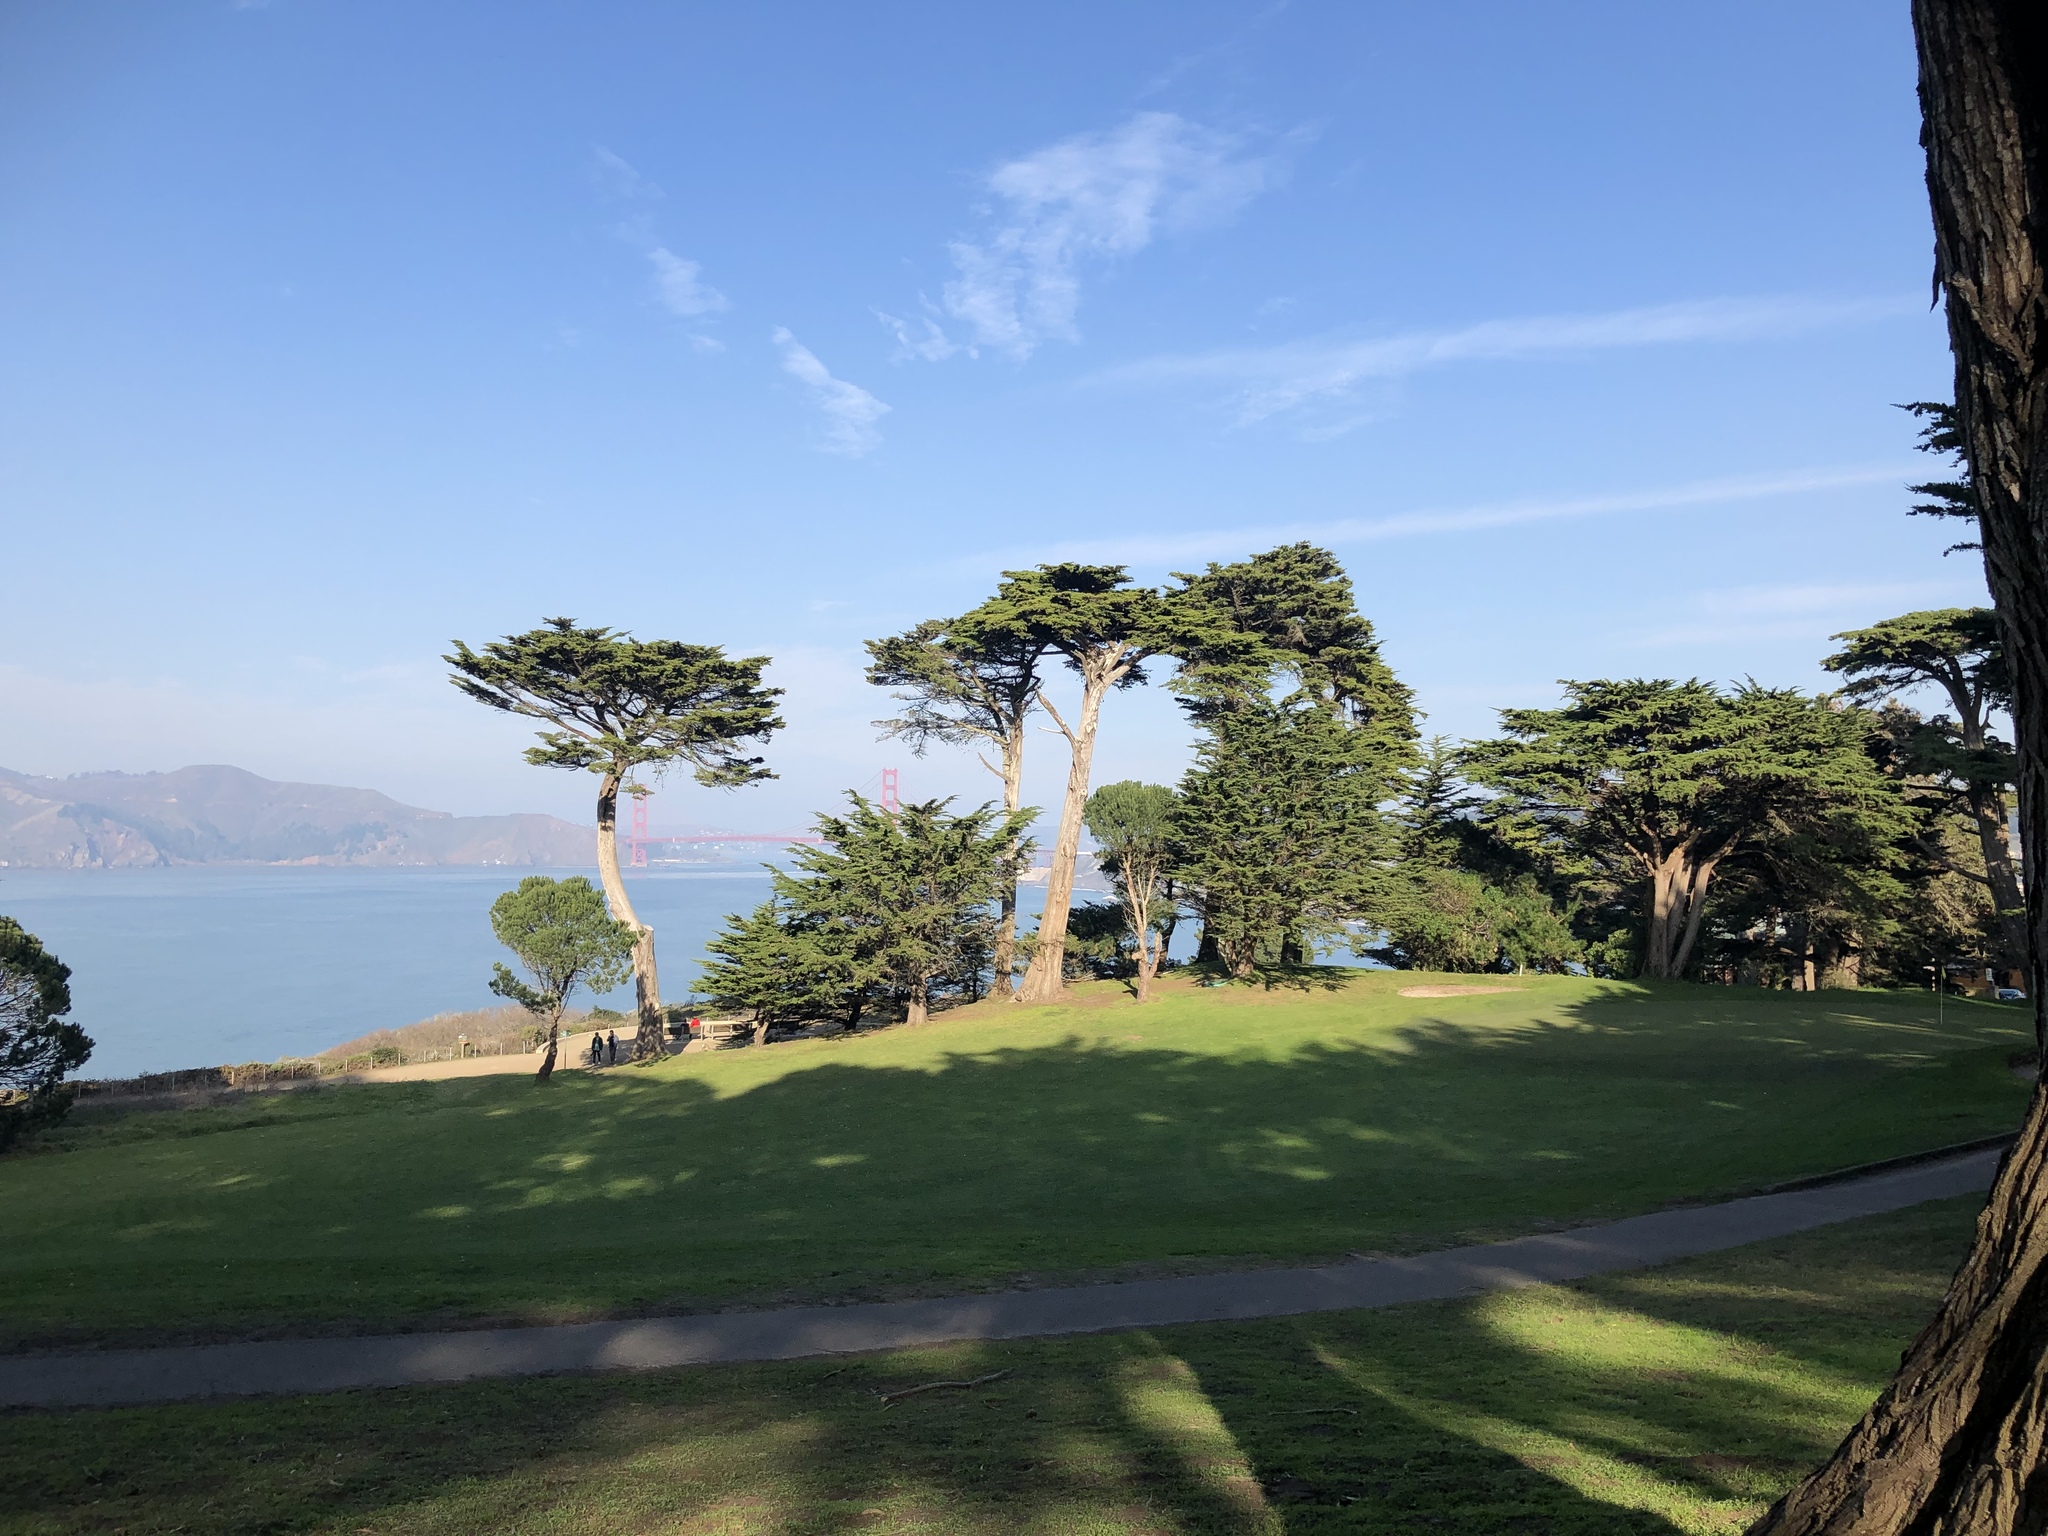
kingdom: Plantae
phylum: Tracheophyta
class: Pinopsida
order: Pinales
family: Cupressaceae
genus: Cupressus
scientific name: Cupressus macrocarpa
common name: Monterey cypress
